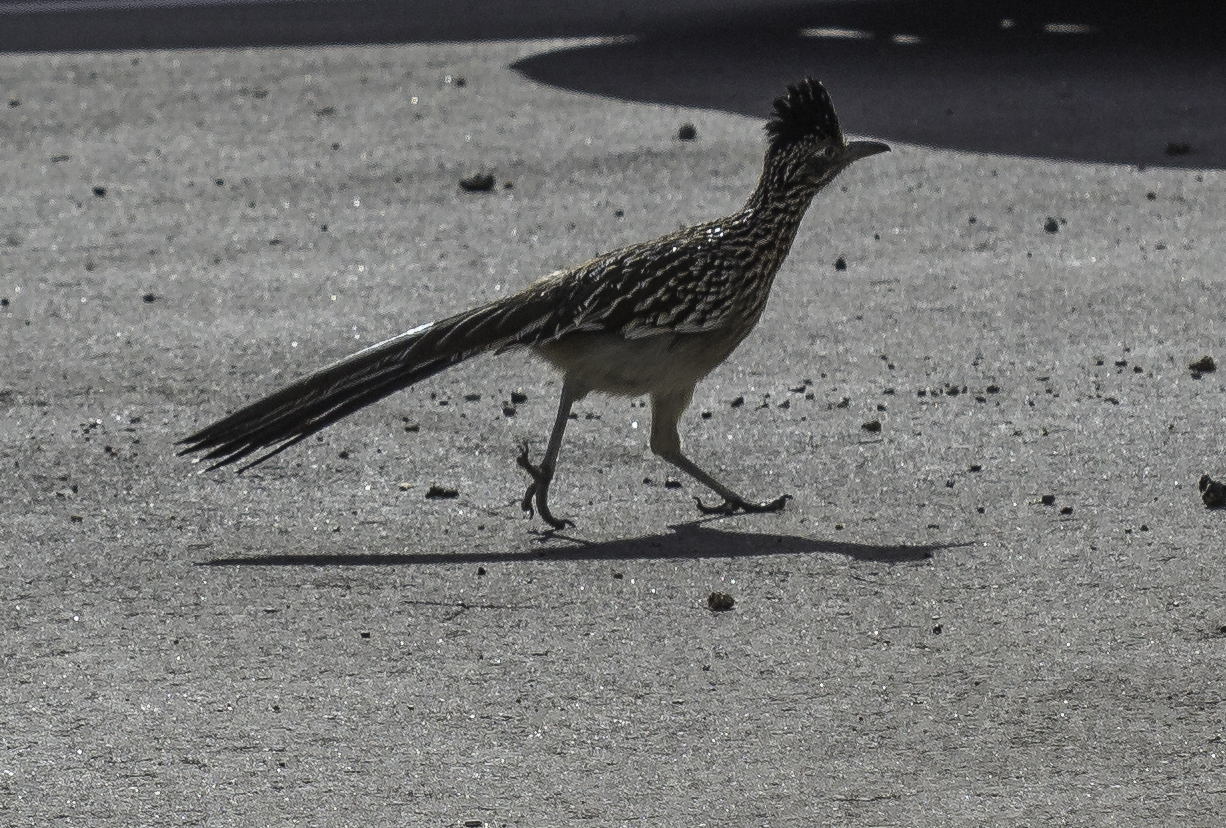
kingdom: Animalia
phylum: Chordata
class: Aves
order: Cuculiformes
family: Cuculidae
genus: Geococcyx
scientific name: Geococcyx californianus
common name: Greater roadrunner
